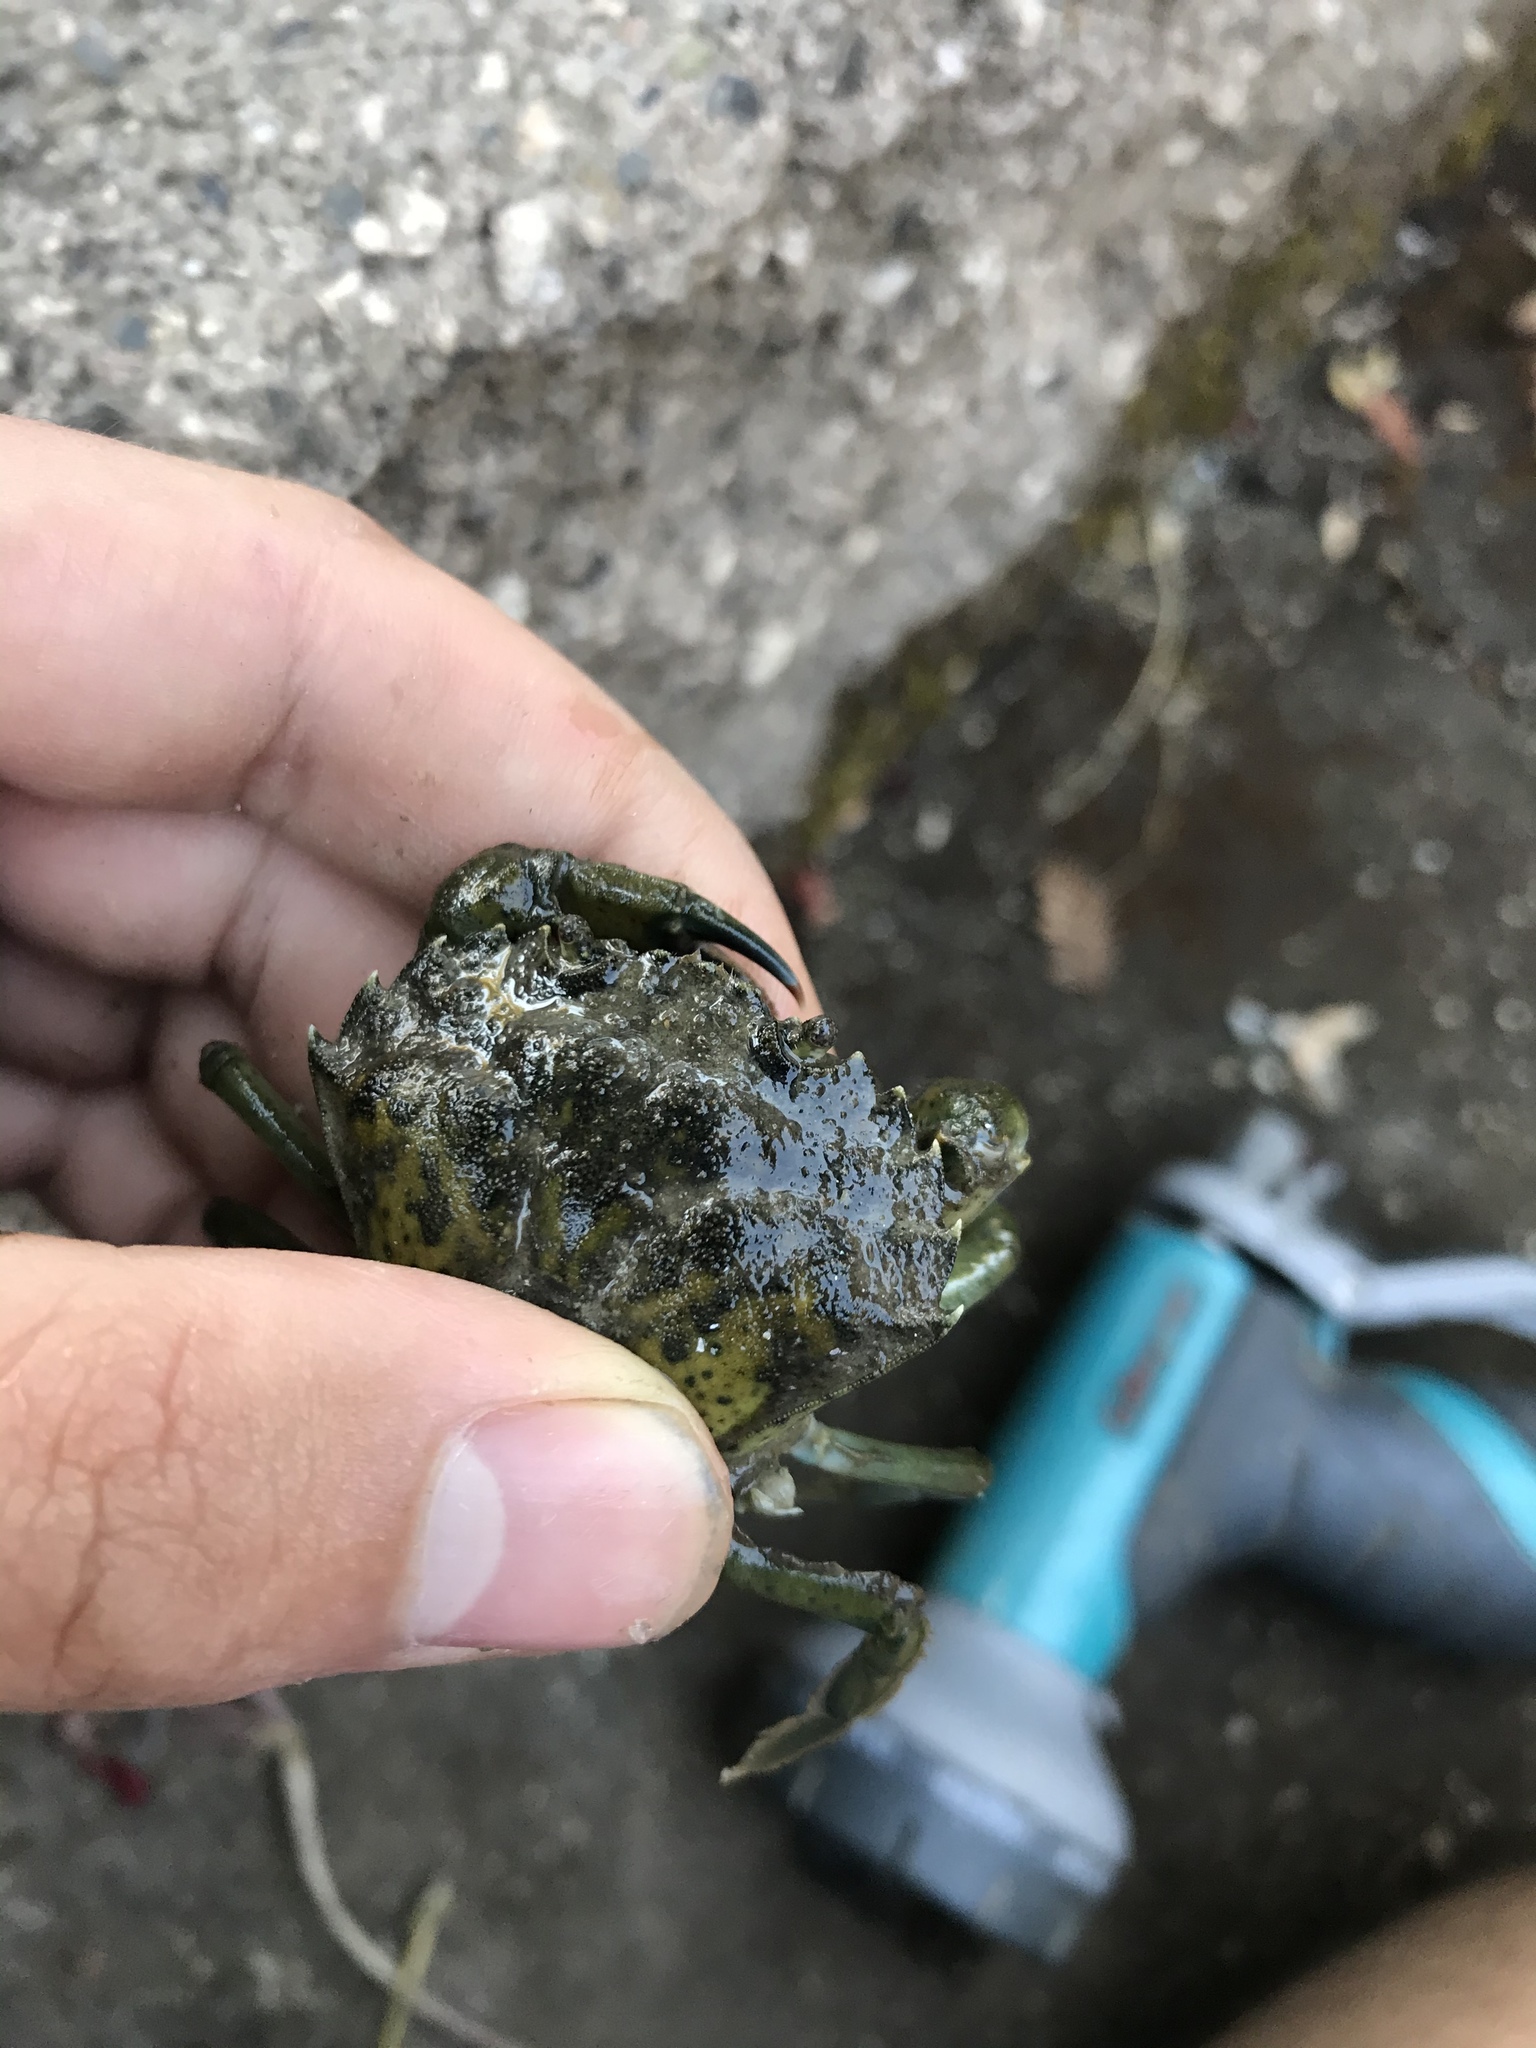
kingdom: Animalia
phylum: Arthropoda
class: Malacostraca
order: Decapoda
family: Carcinidae
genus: Carcinus
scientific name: Carcinus maenas
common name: European green crab
